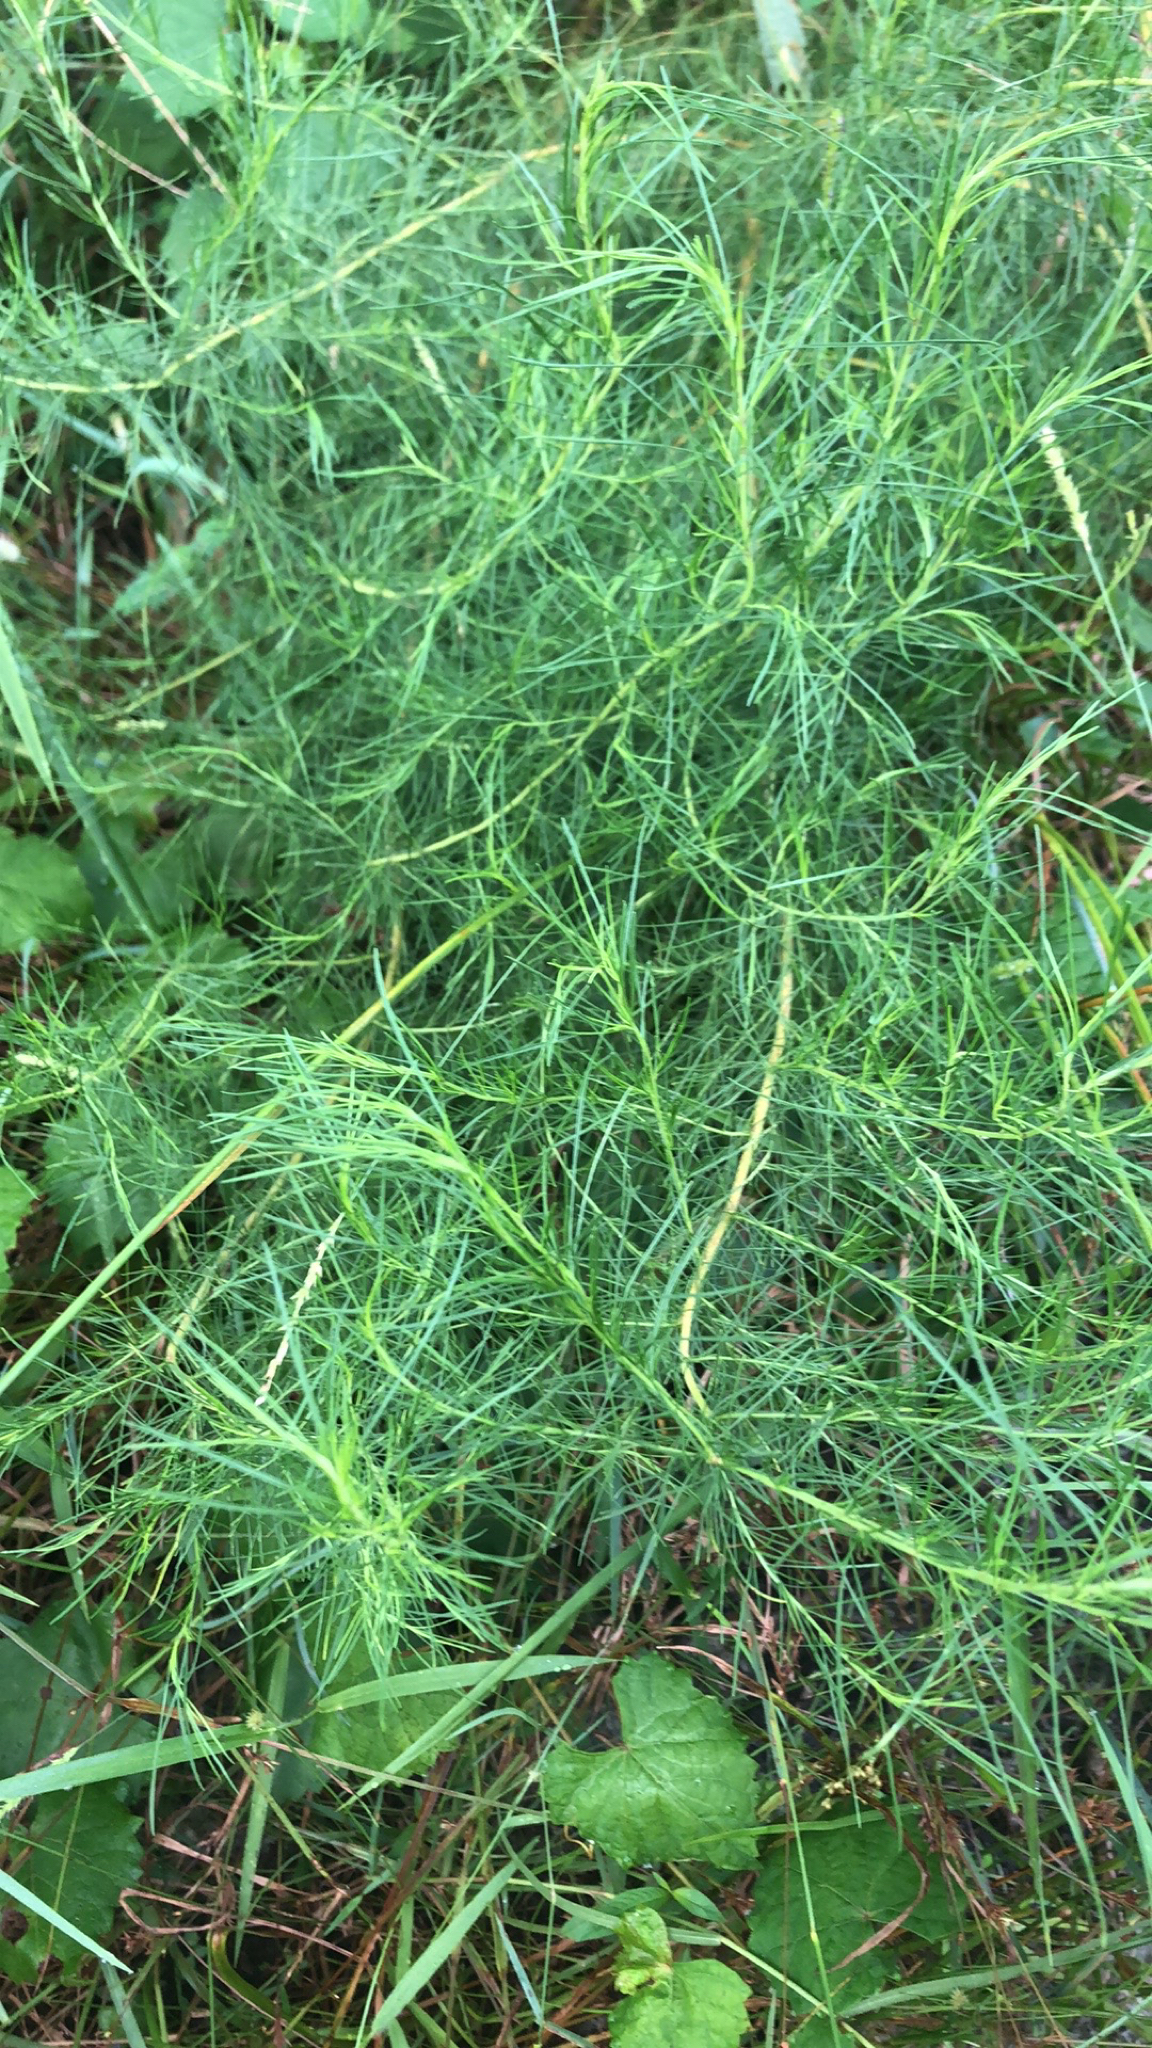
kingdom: Plantae
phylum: Tracheophyta
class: Magnoliopsida
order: Asterales
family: Asteraceae
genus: Eupatorium
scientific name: Eupatorium capillifolium
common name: Dog-fennel
